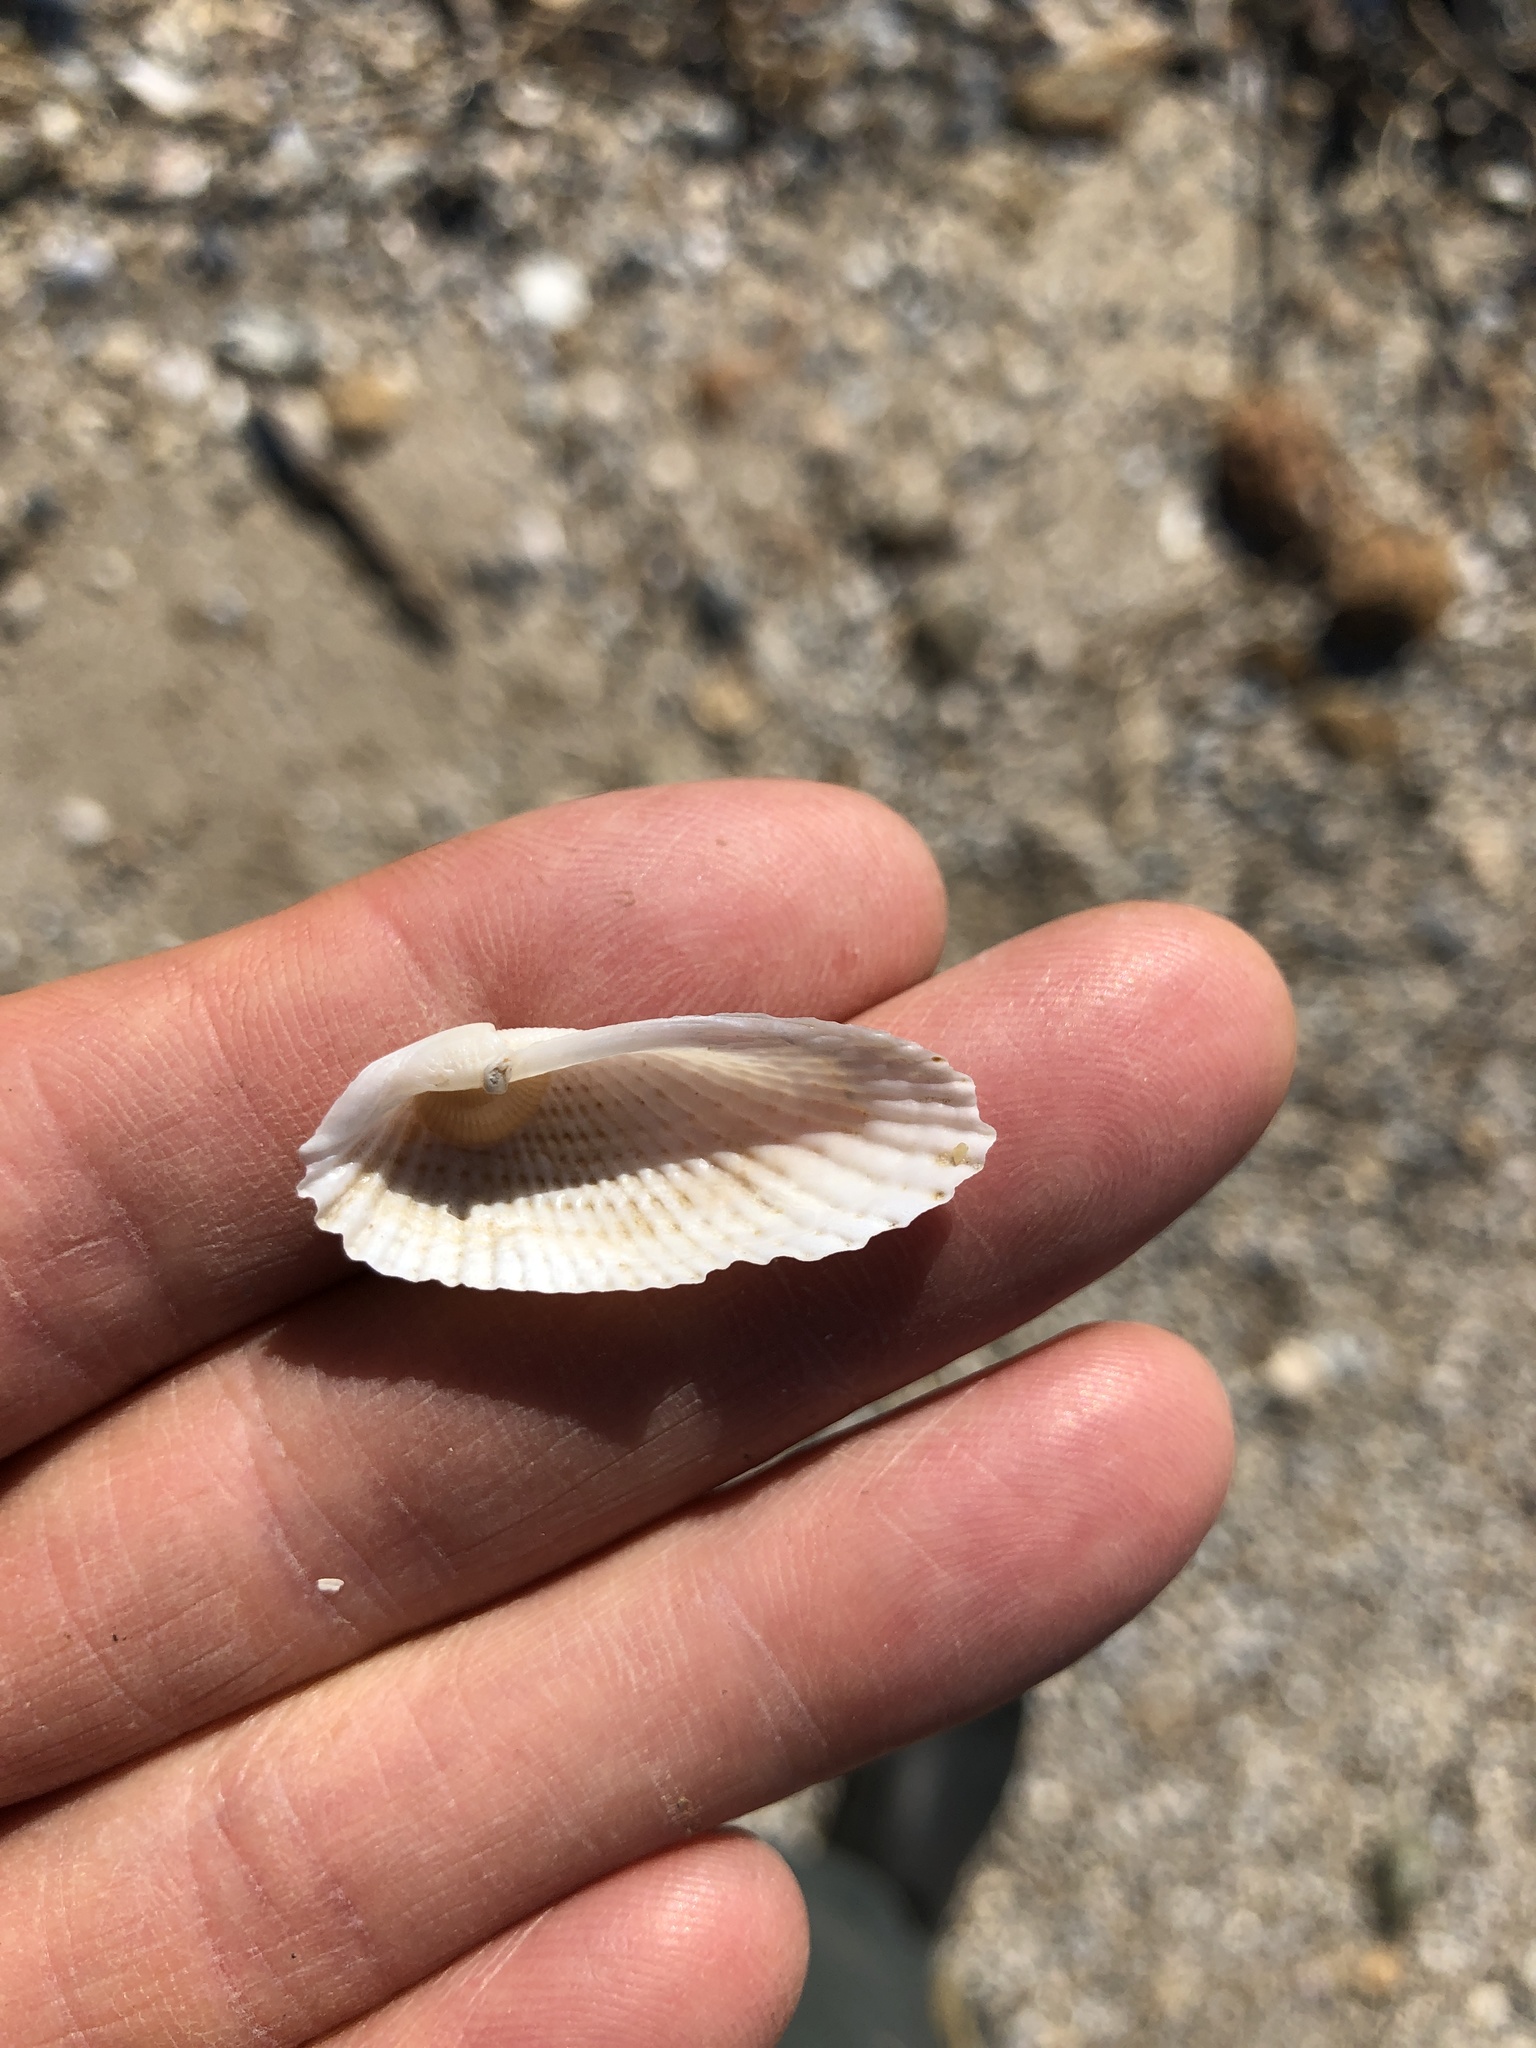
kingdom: Animalia
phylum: Mollusca
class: Bivalvia
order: Myida
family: Pholadidae
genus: Cyrtopleura
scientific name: Cyrtopleura costata
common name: Angel wing
